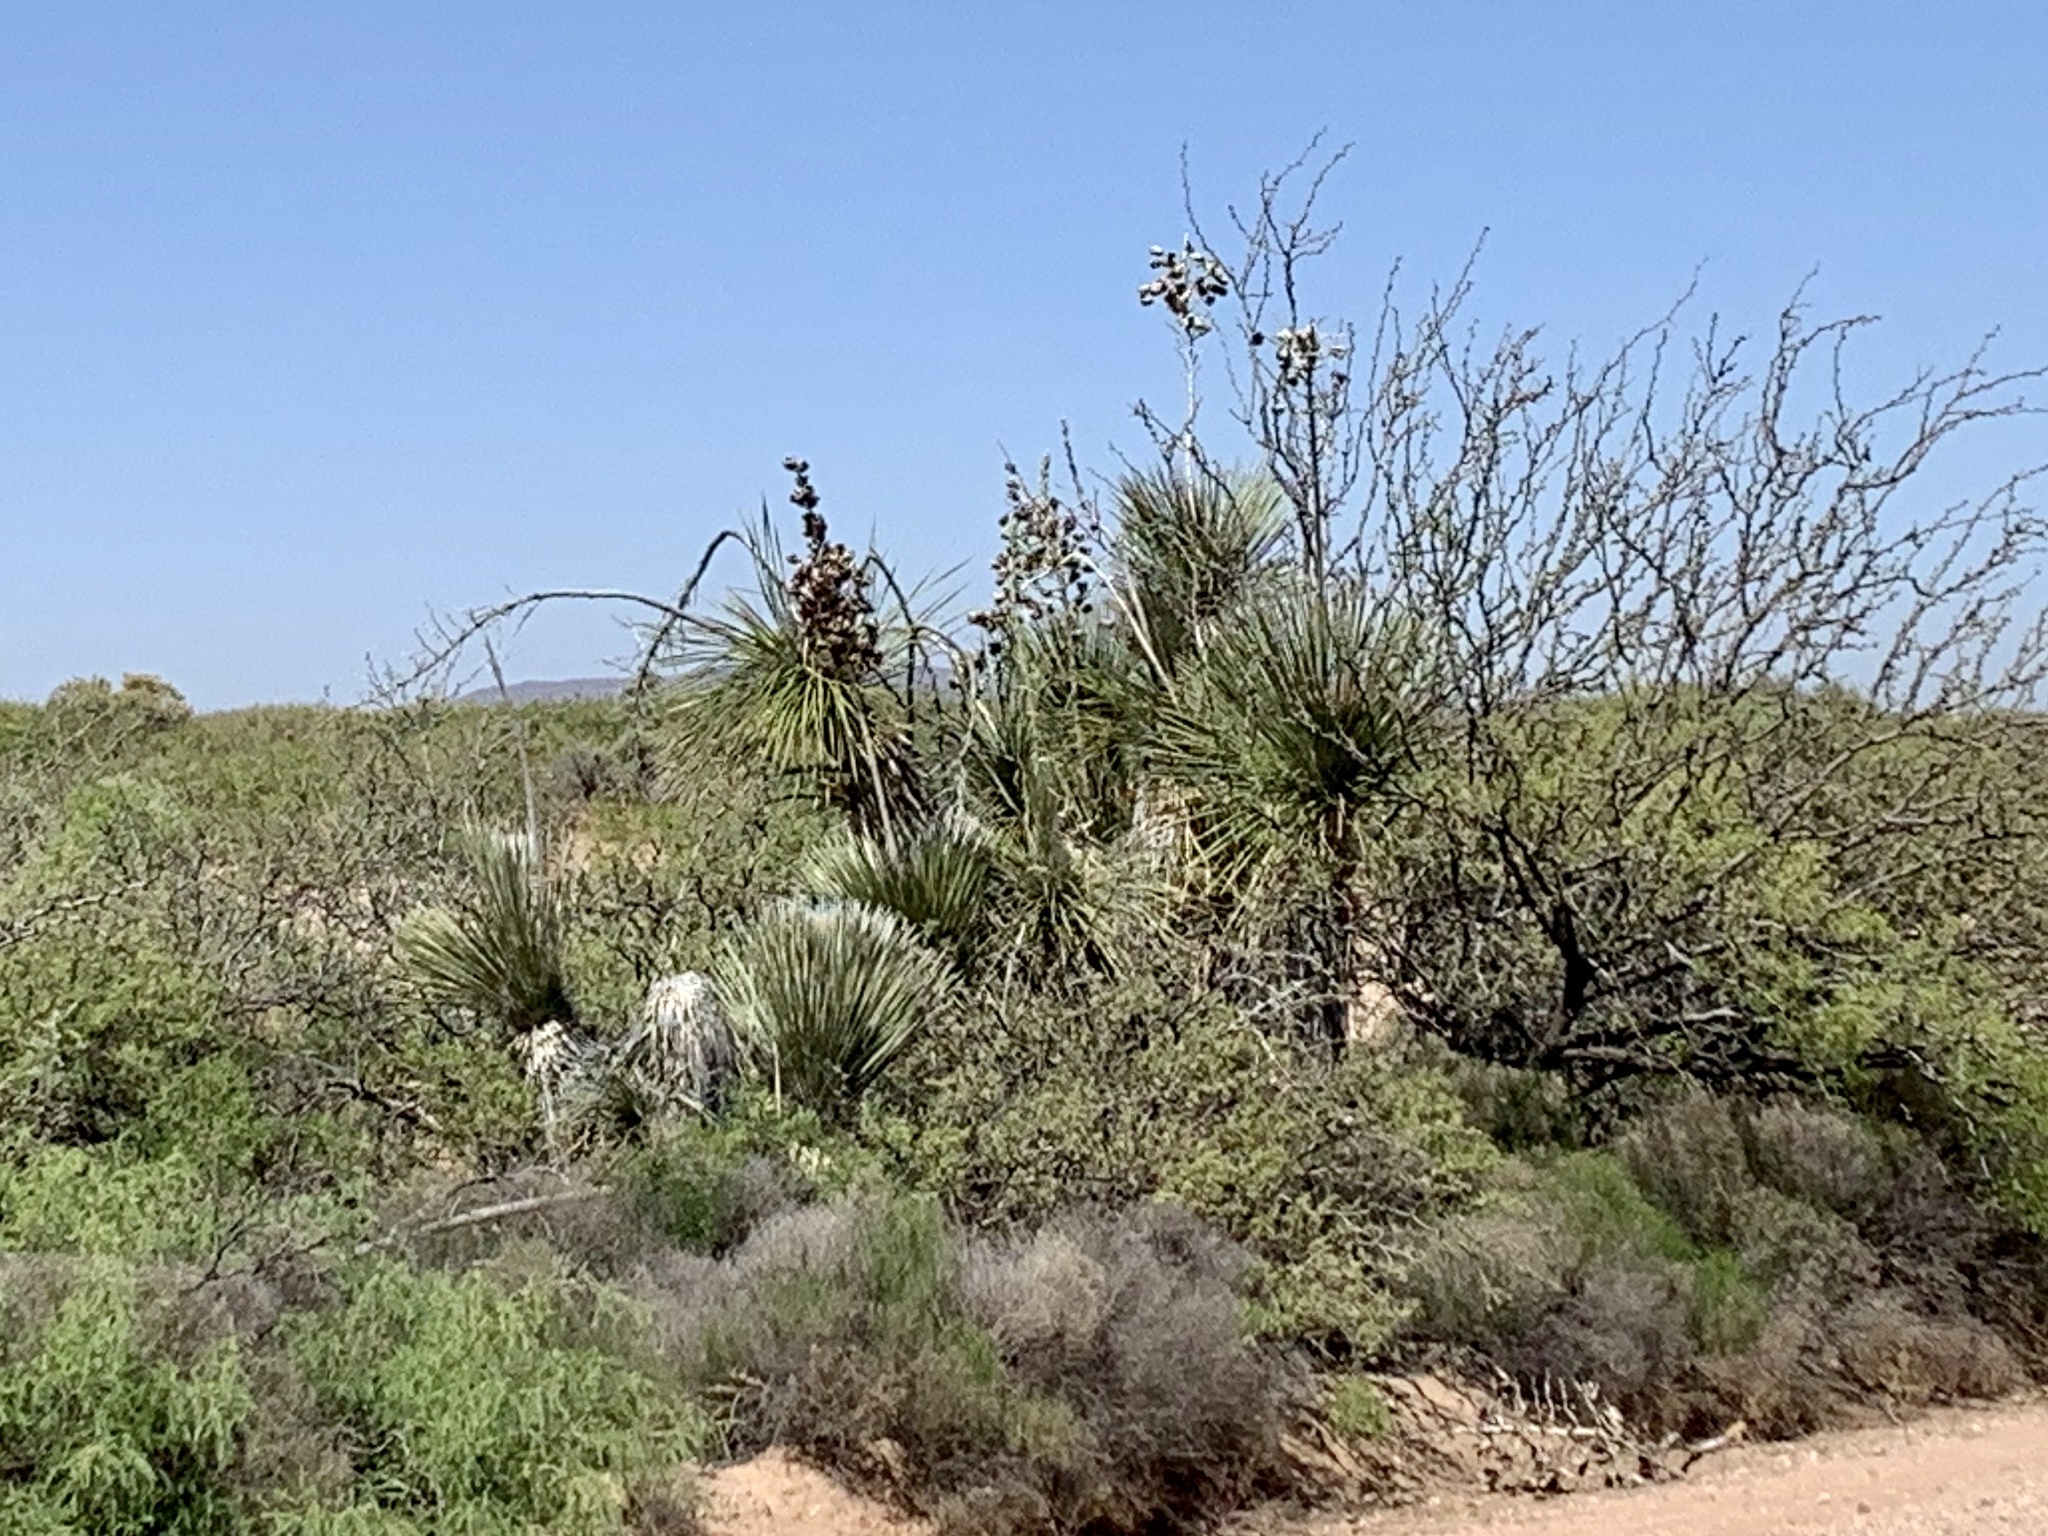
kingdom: Plantae
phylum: Tracheophyta
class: Liliopsida
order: Asparagales
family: Asparagaceae
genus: Yucca
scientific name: Yucca elata
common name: Palmella
